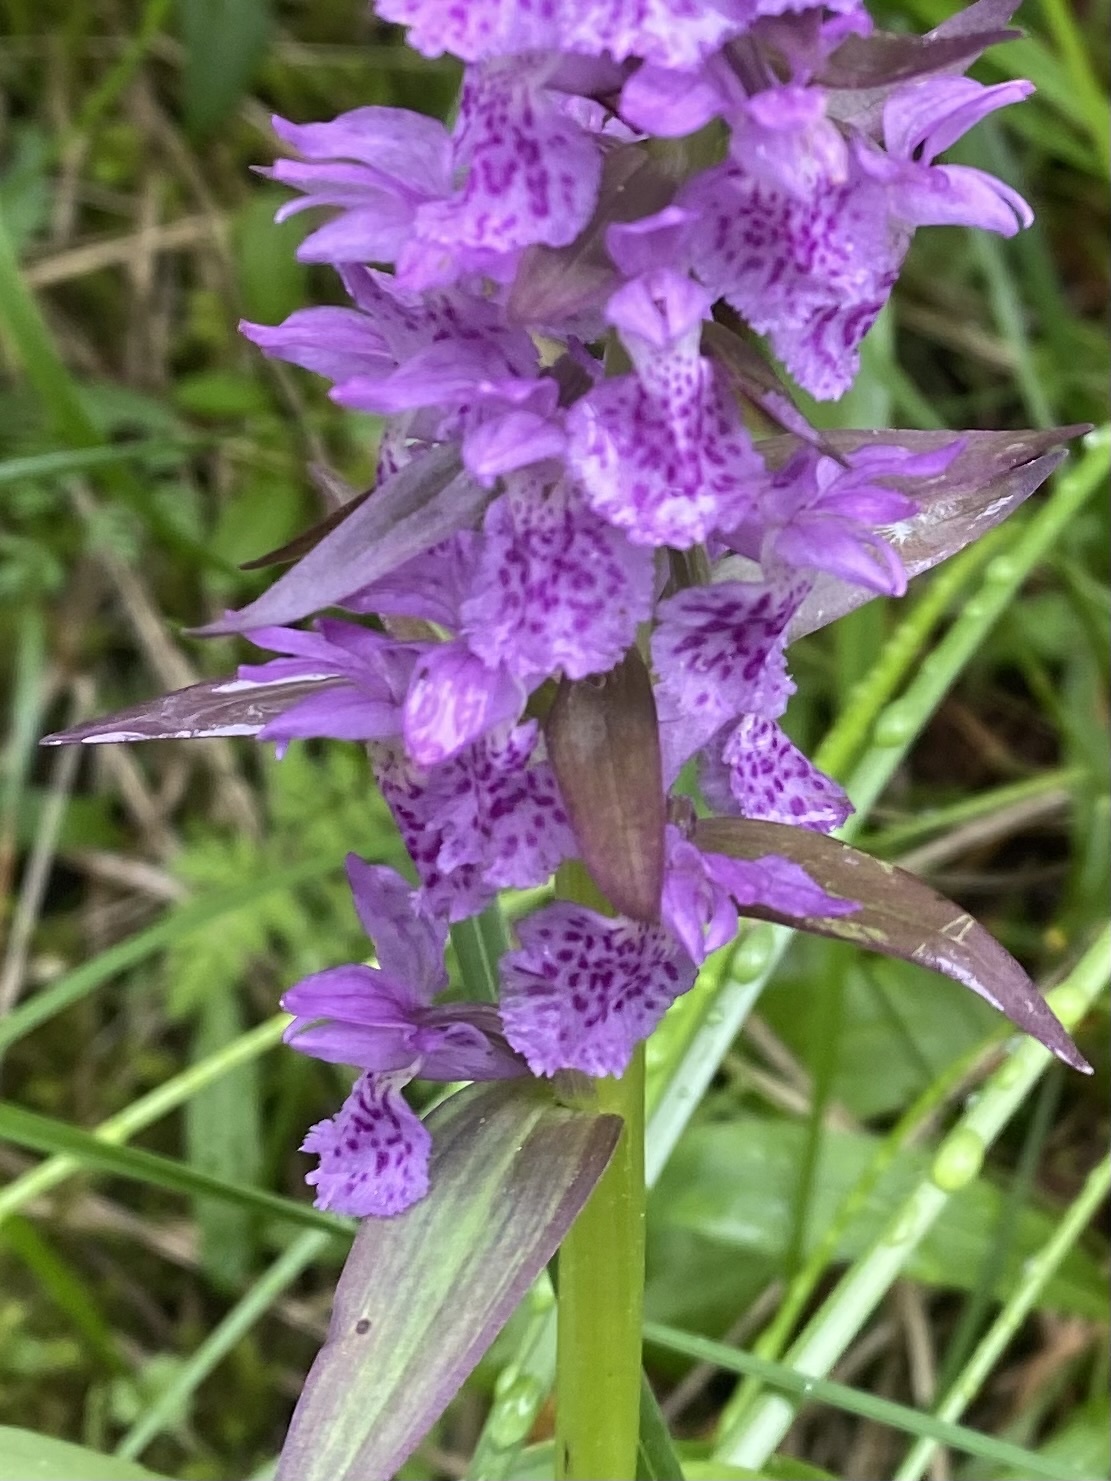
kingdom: Plantae
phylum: Tracheophyta
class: Liliopsida
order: Asparagales
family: Orchidaceae
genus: Dactylorhiza
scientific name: Dactylorhiza euxina
